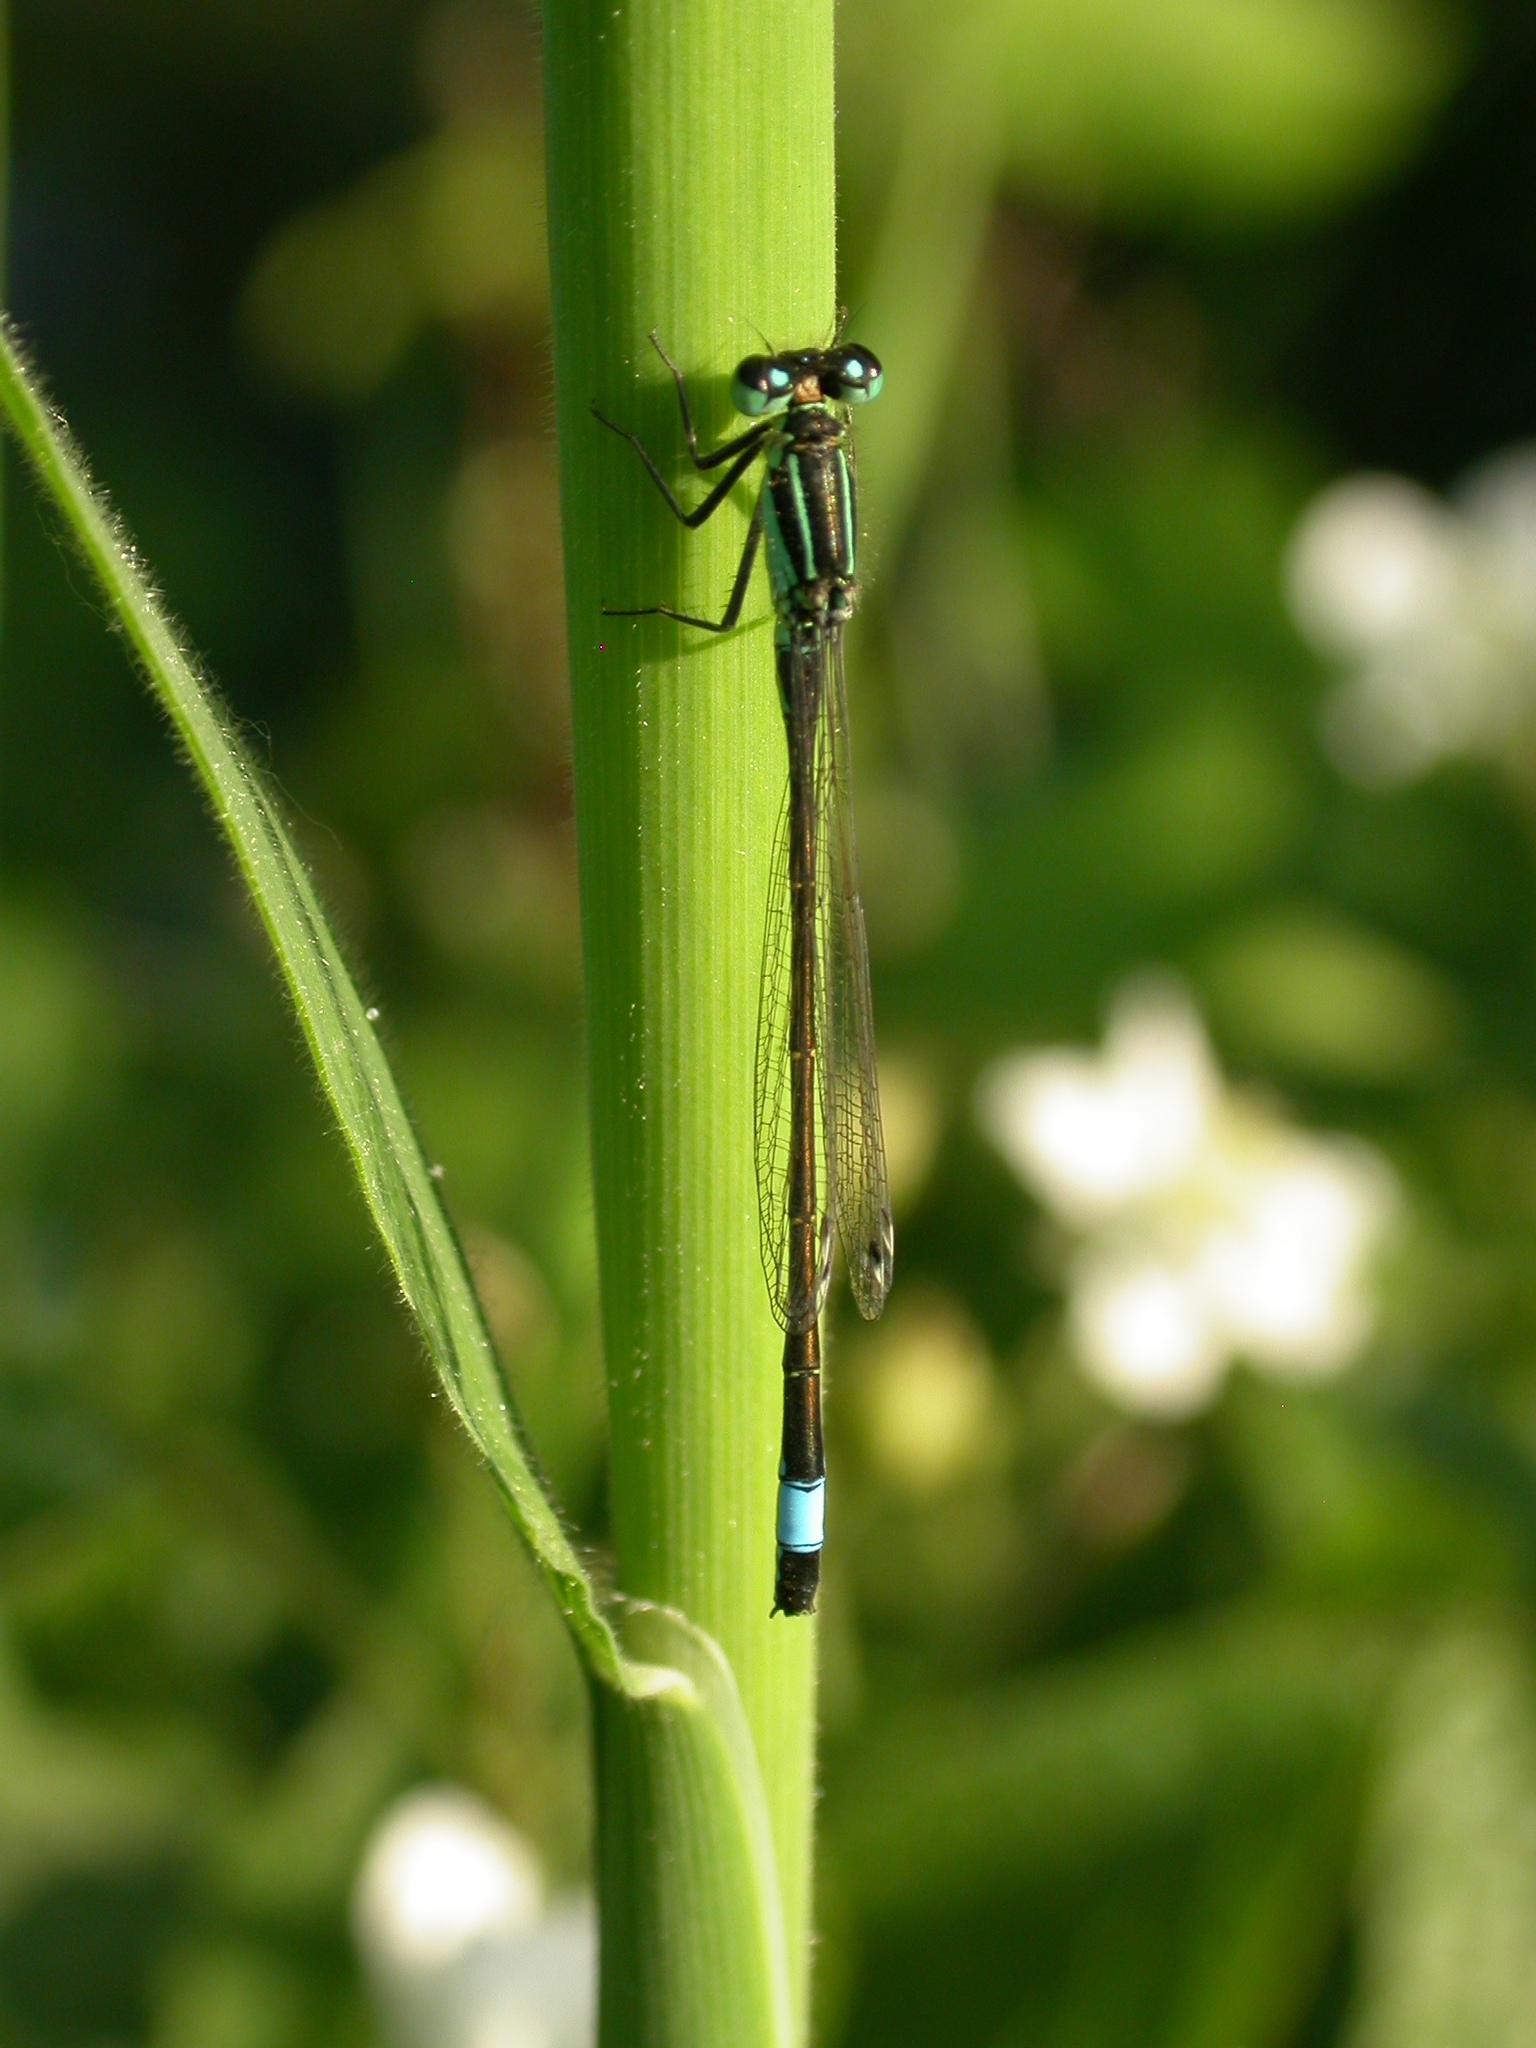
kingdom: Animalia
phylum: Arthropoda
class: Insecta
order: Odonata
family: Coenagrionidae
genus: Ischnura
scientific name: Ischnura elegans
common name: Blue-tailed damselfly
